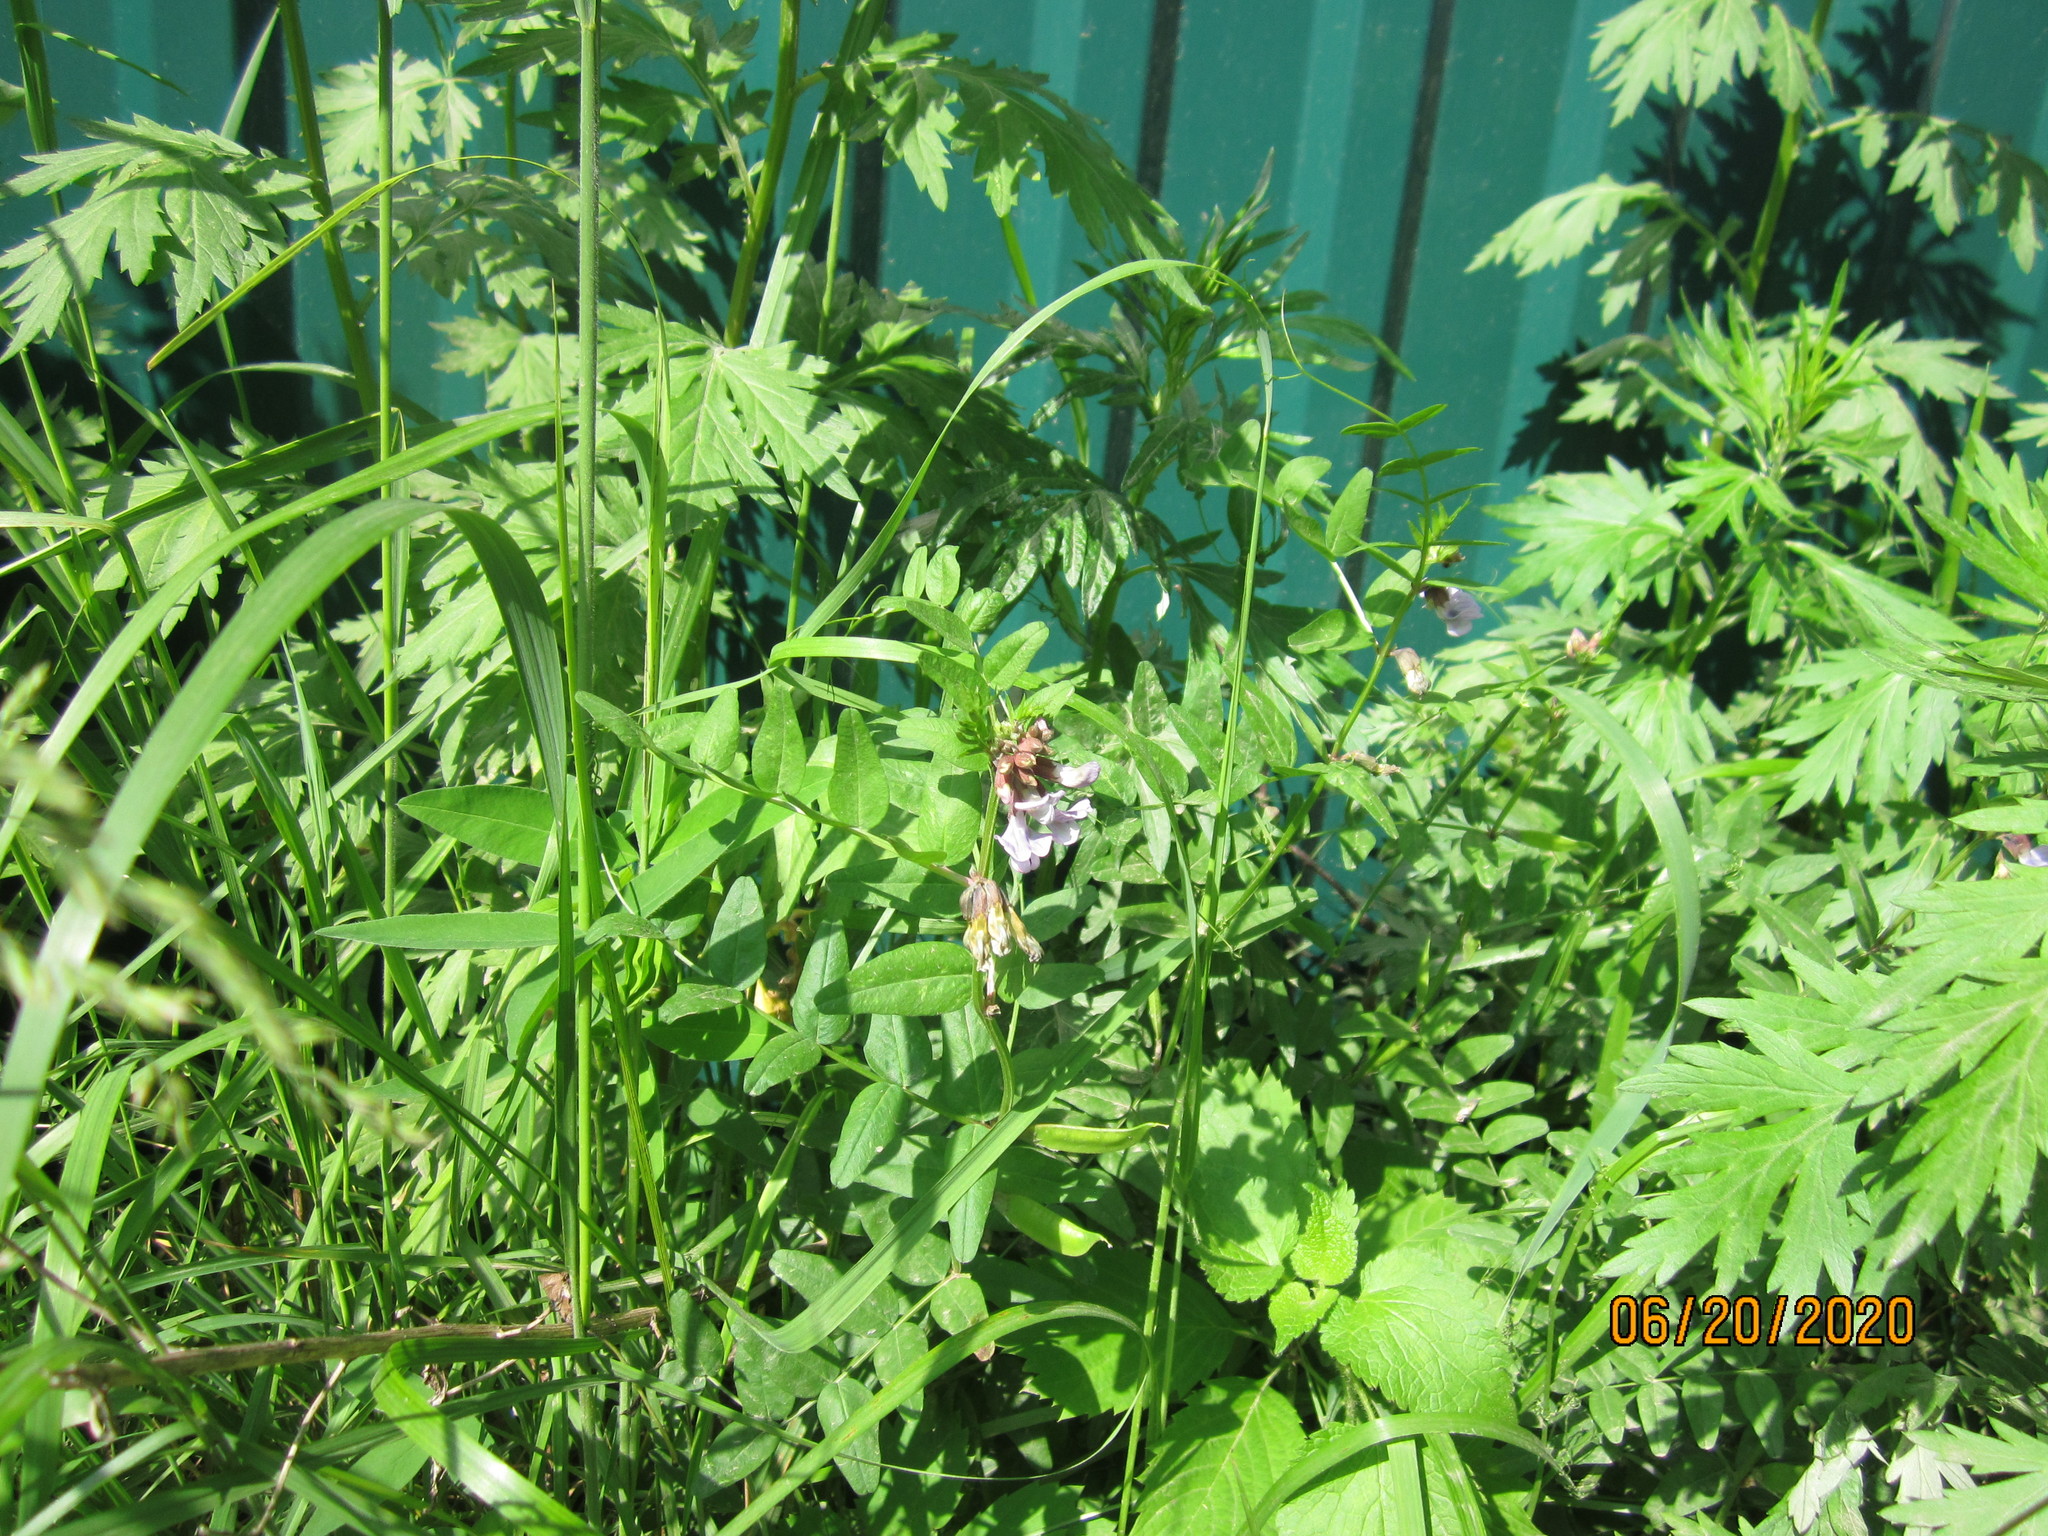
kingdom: Plantae
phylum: Tracheophyta
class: Magnoliopsida
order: Fabales
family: Fabaceae
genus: Vicia
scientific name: Vicia sepium
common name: Bush vetch
